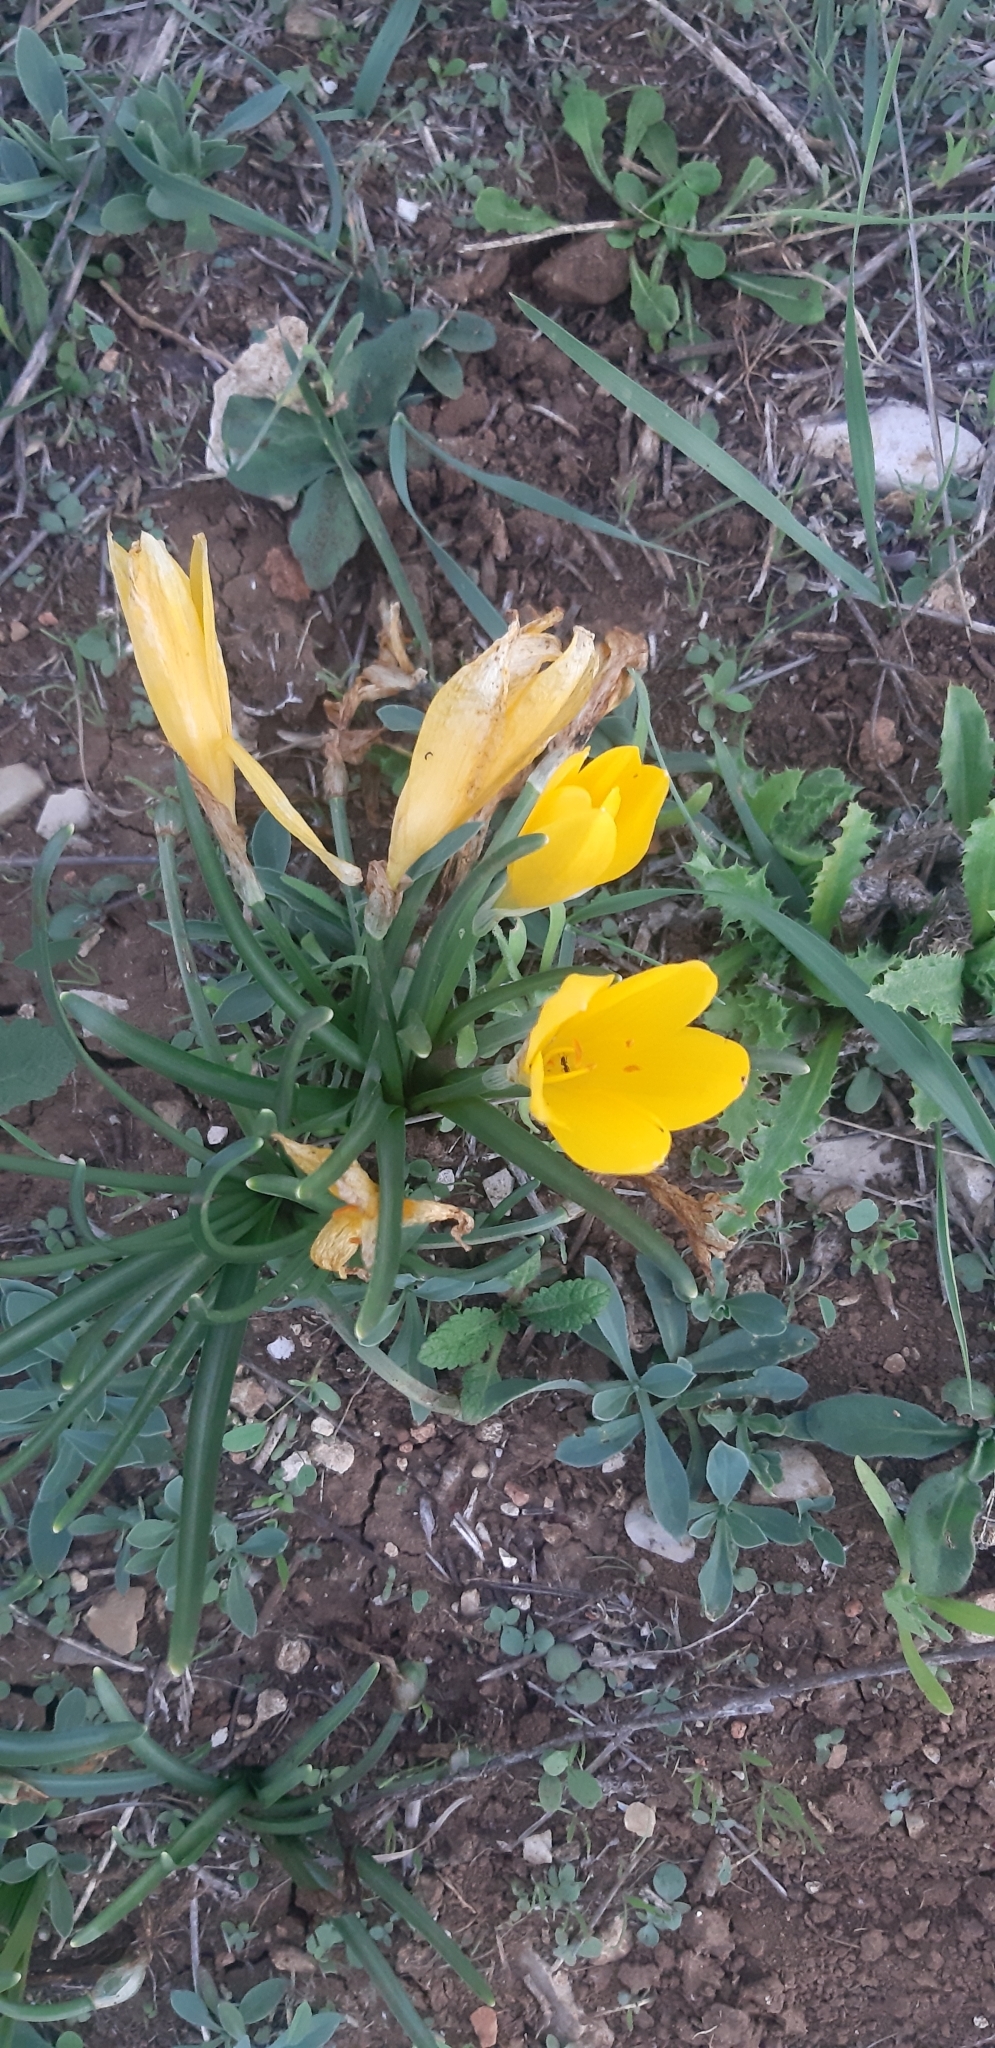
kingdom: Plantae
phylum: Tracheophyta
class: Liliopsida
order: Asparagales
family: Amaryllidaceae
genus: Sternbergia
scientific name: Sternbergia lutea
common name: Winter daffodil
